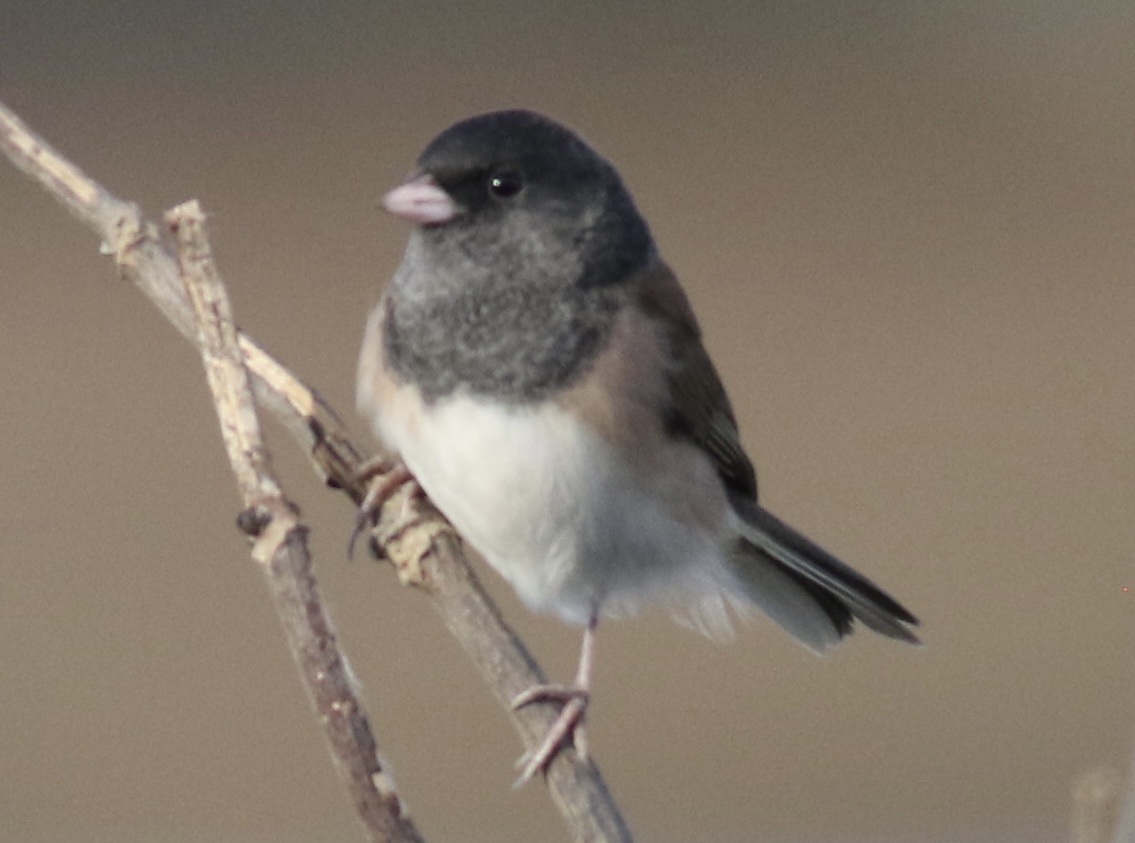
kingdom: Animalia
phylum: Chordata
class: Aves
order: Passeriformes
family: Passerellidae
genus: Junco
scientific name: Junco hyemalis
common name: Dark-eyed junco
